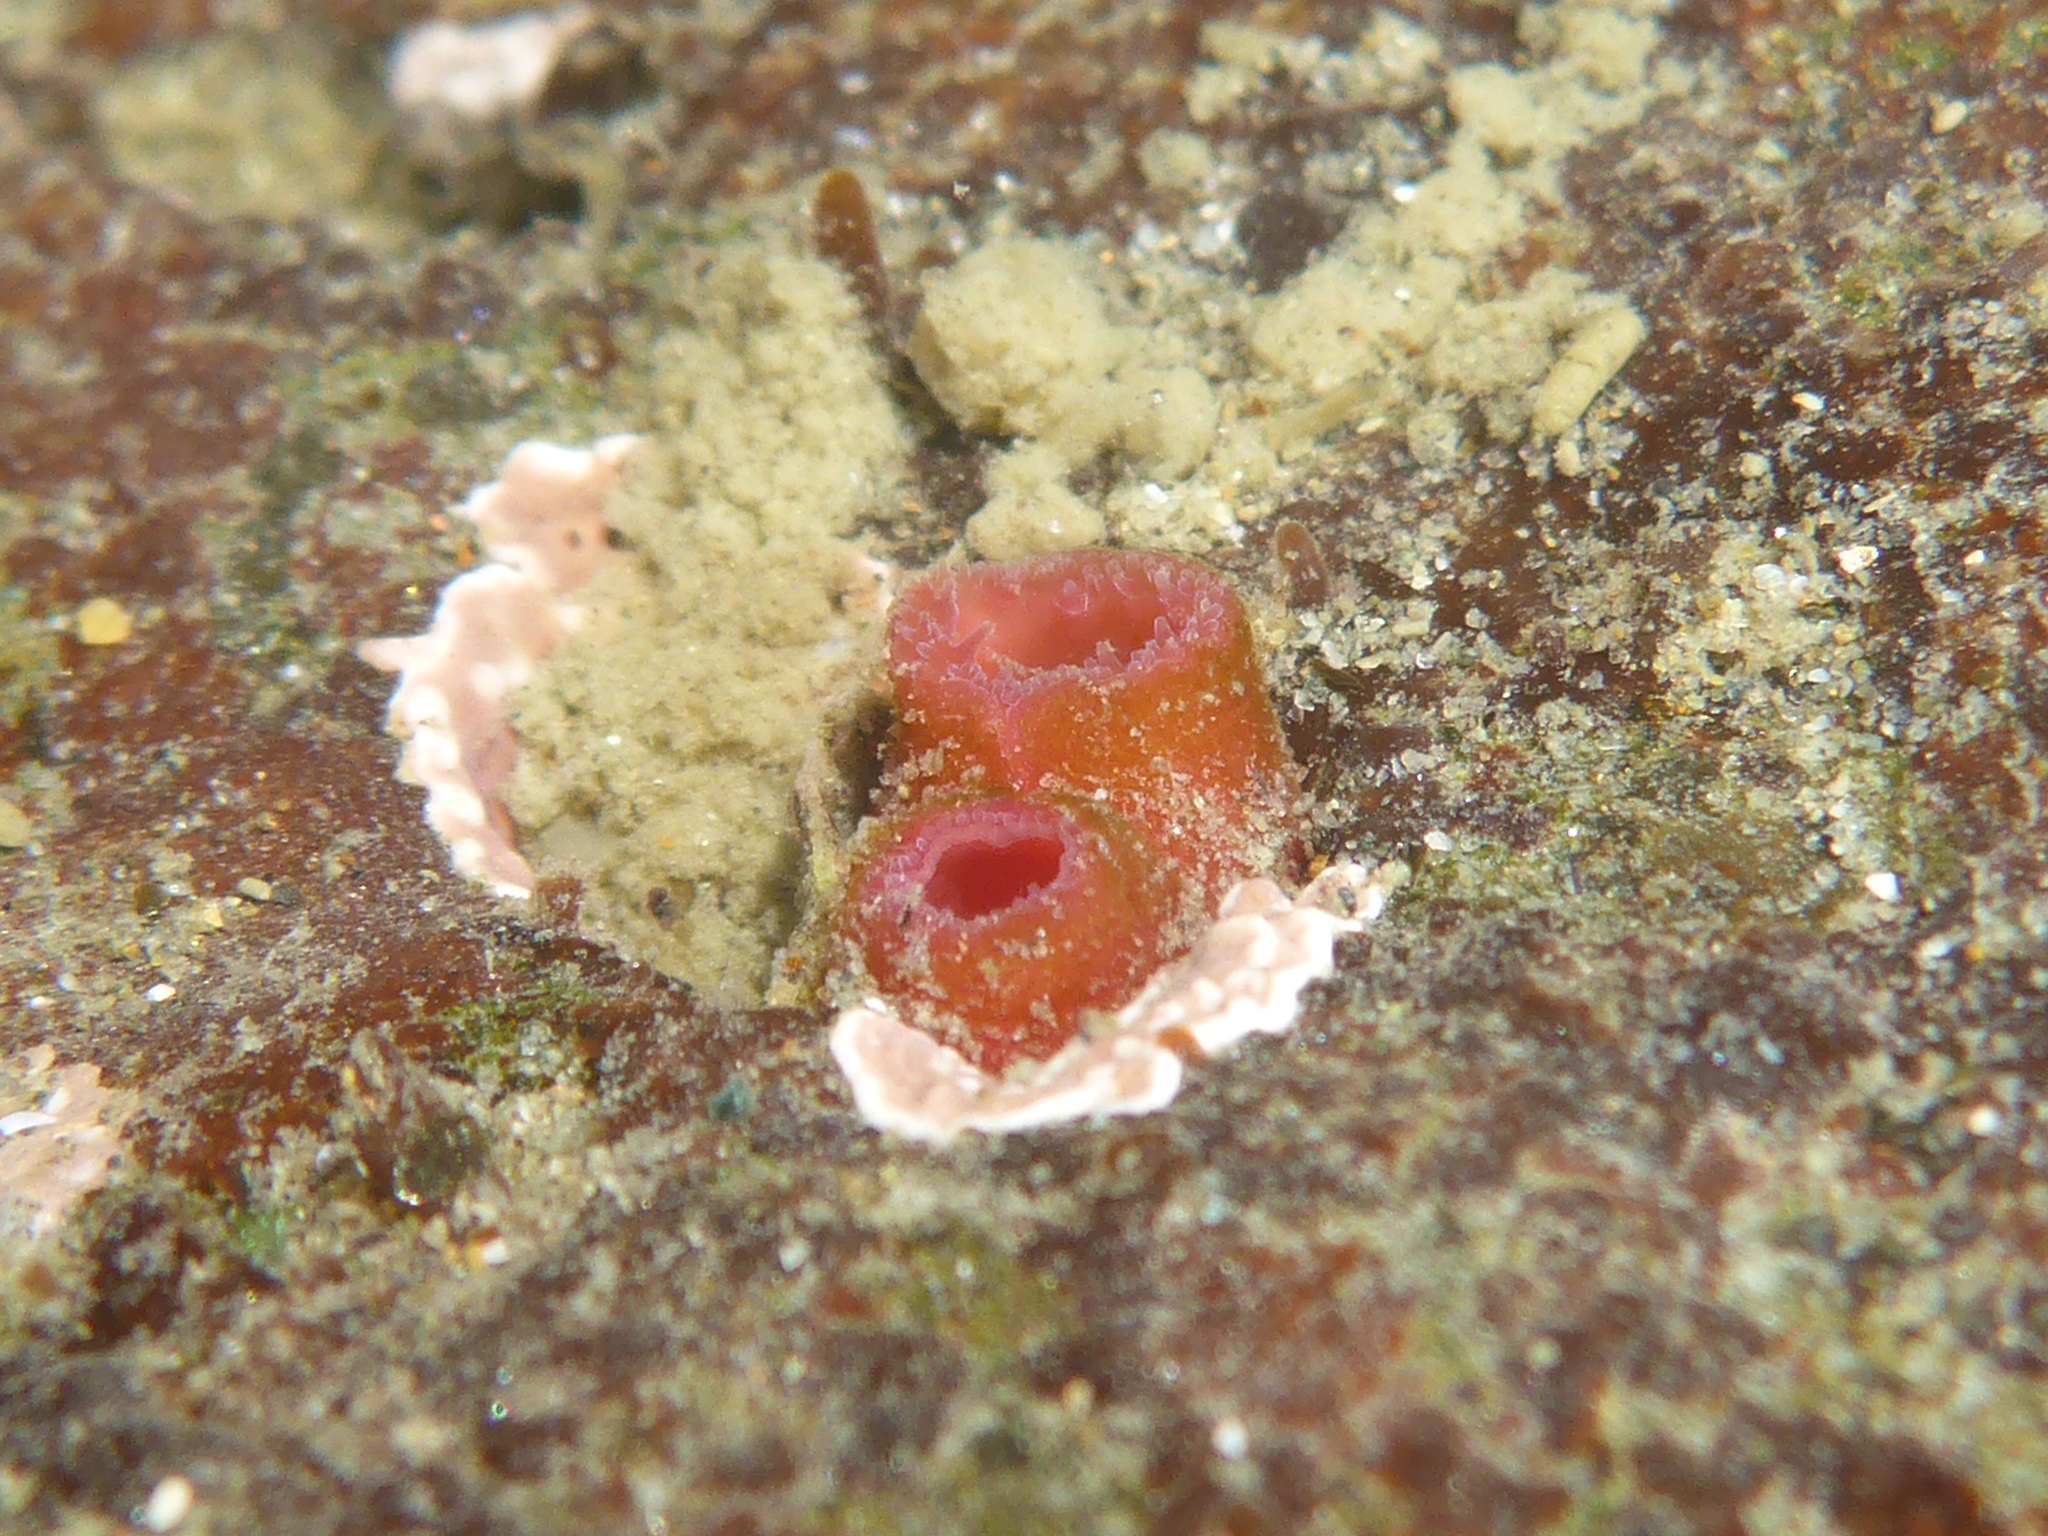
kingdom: Animalia
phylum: Mollusca
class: Bivalvia
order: Adapedonta
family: Hiatellidae
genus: Hiatella
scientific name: Hiatella arctica
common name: Arctic hiatella
